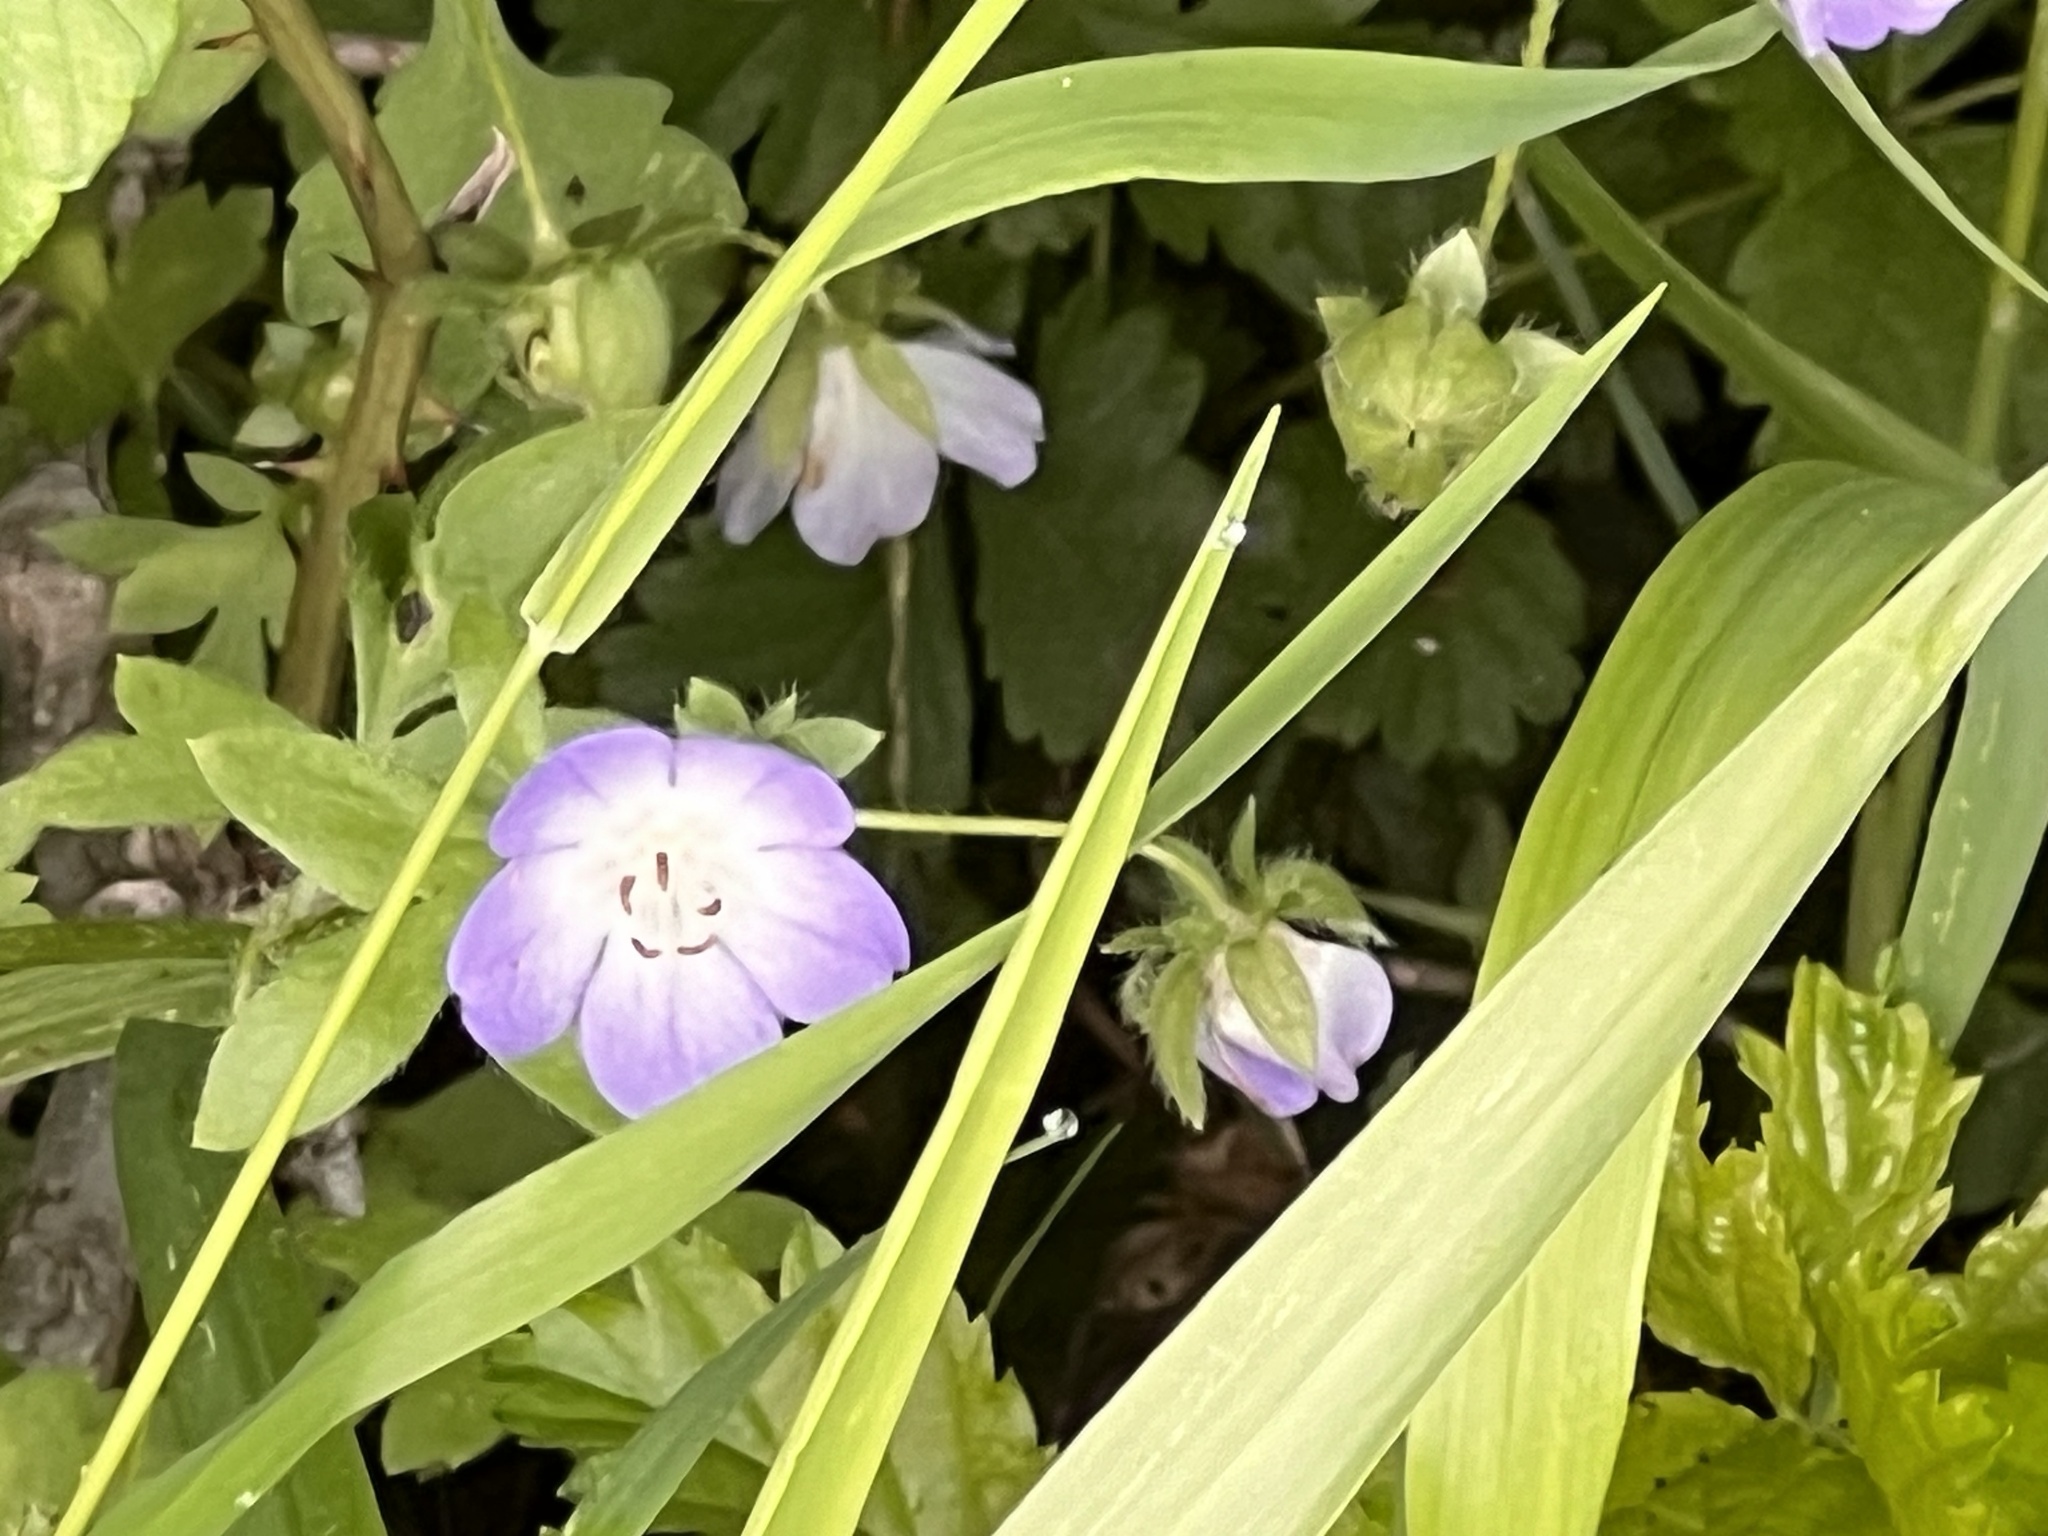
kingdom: Plantae
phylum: Tracheophyta
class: Magnoliopsida
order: Boraginales
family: Hydrophyllaceae
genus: Nemophila
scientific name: Nemophila phacelioides
